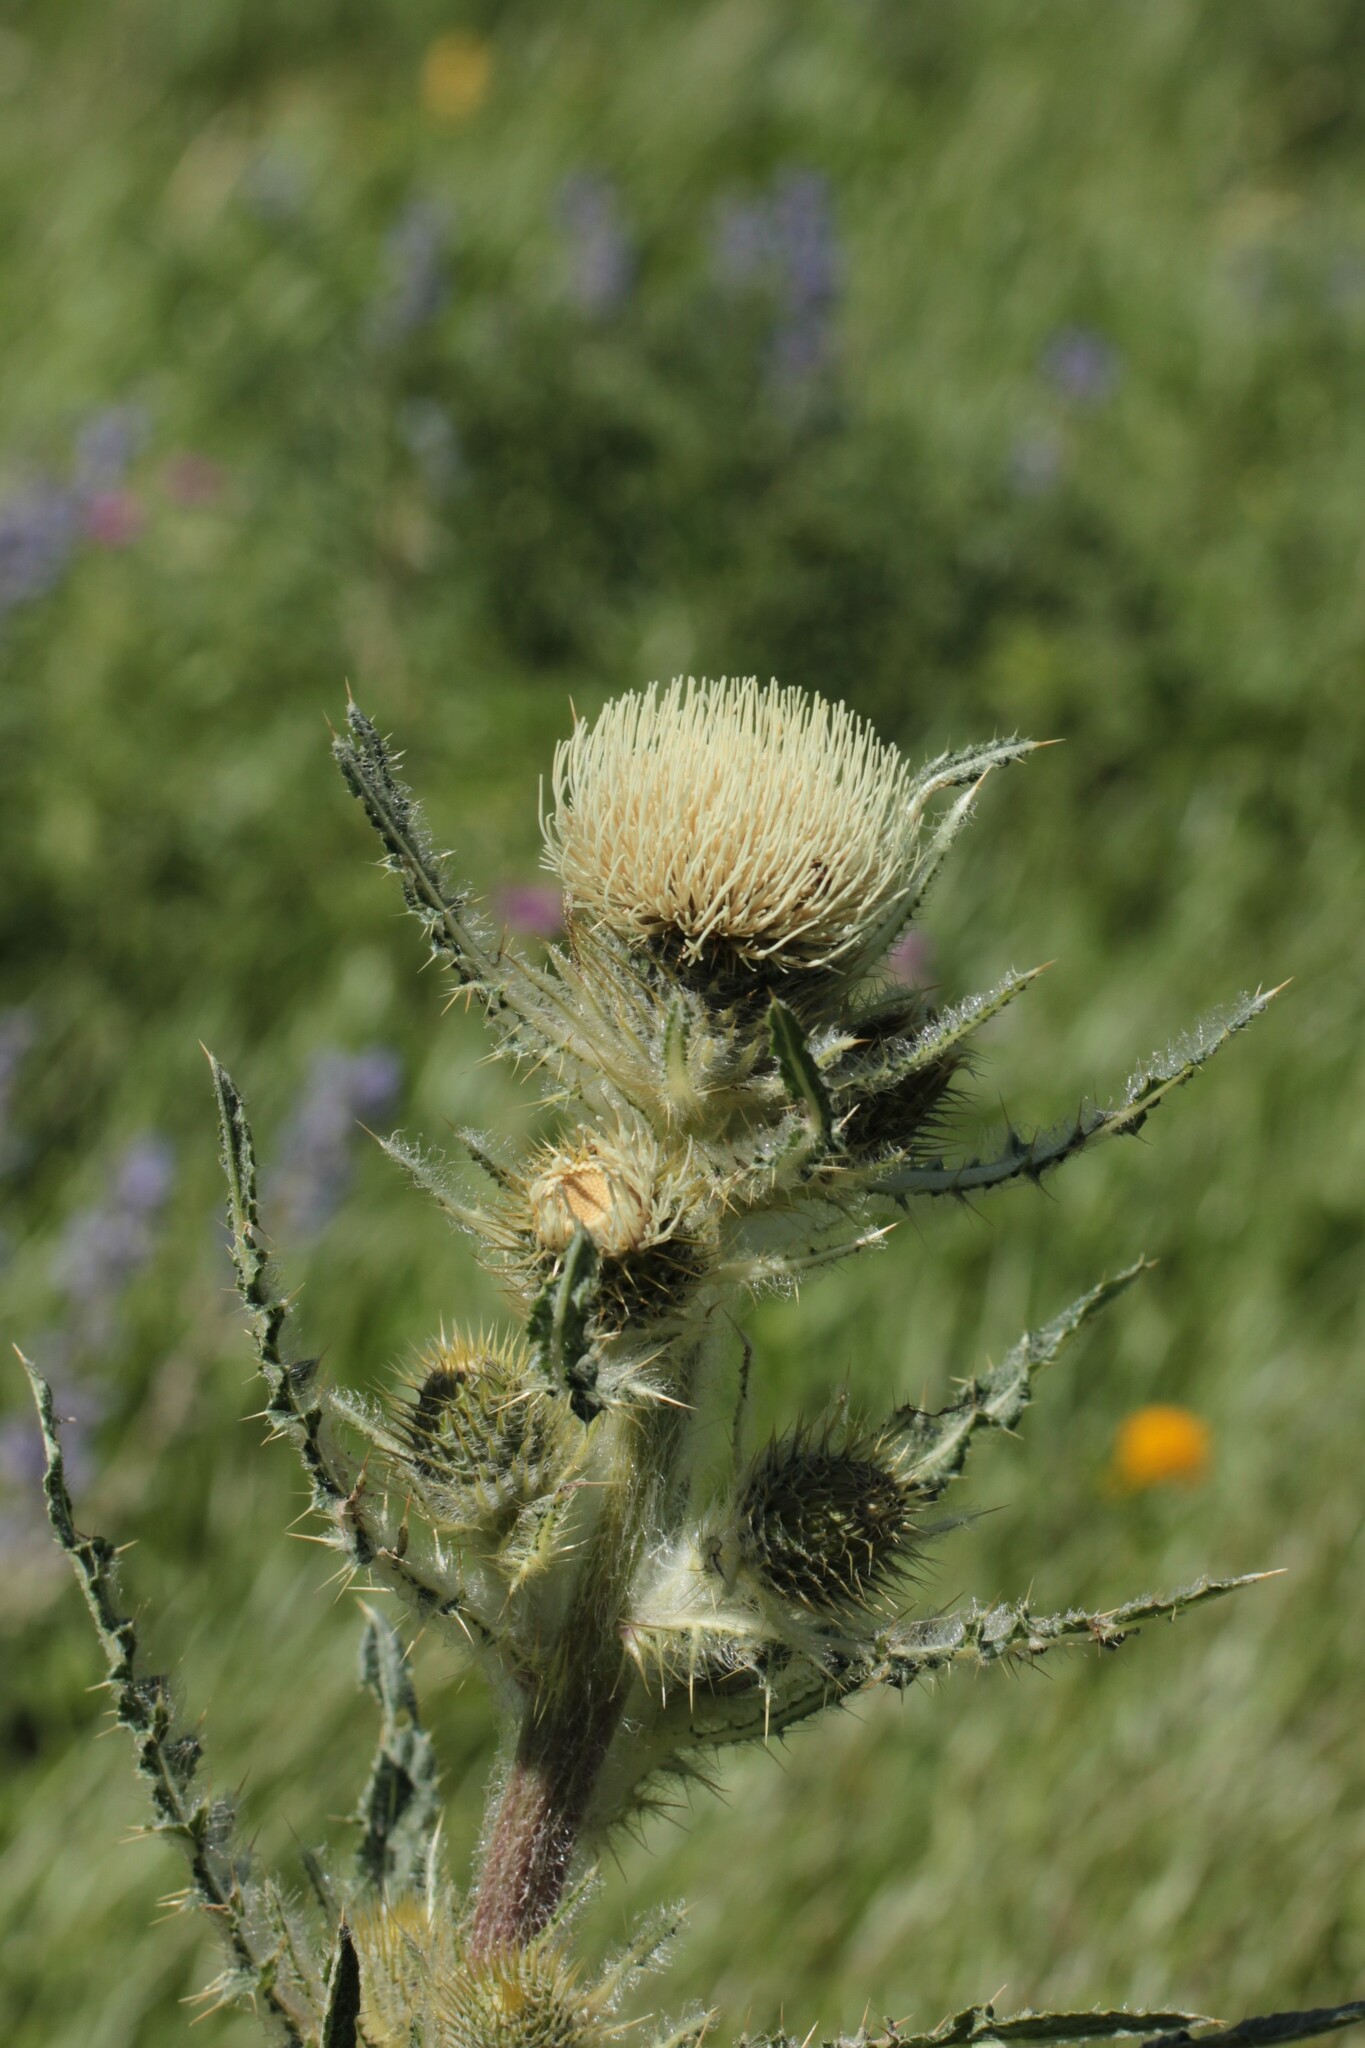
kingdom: Plantae
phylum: Tracheophyta
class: Magnoliopsida
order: Asterales
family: Asteraceae
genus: Cirsium
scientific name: Cirsium hookerianum
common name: Hooker's thistle
